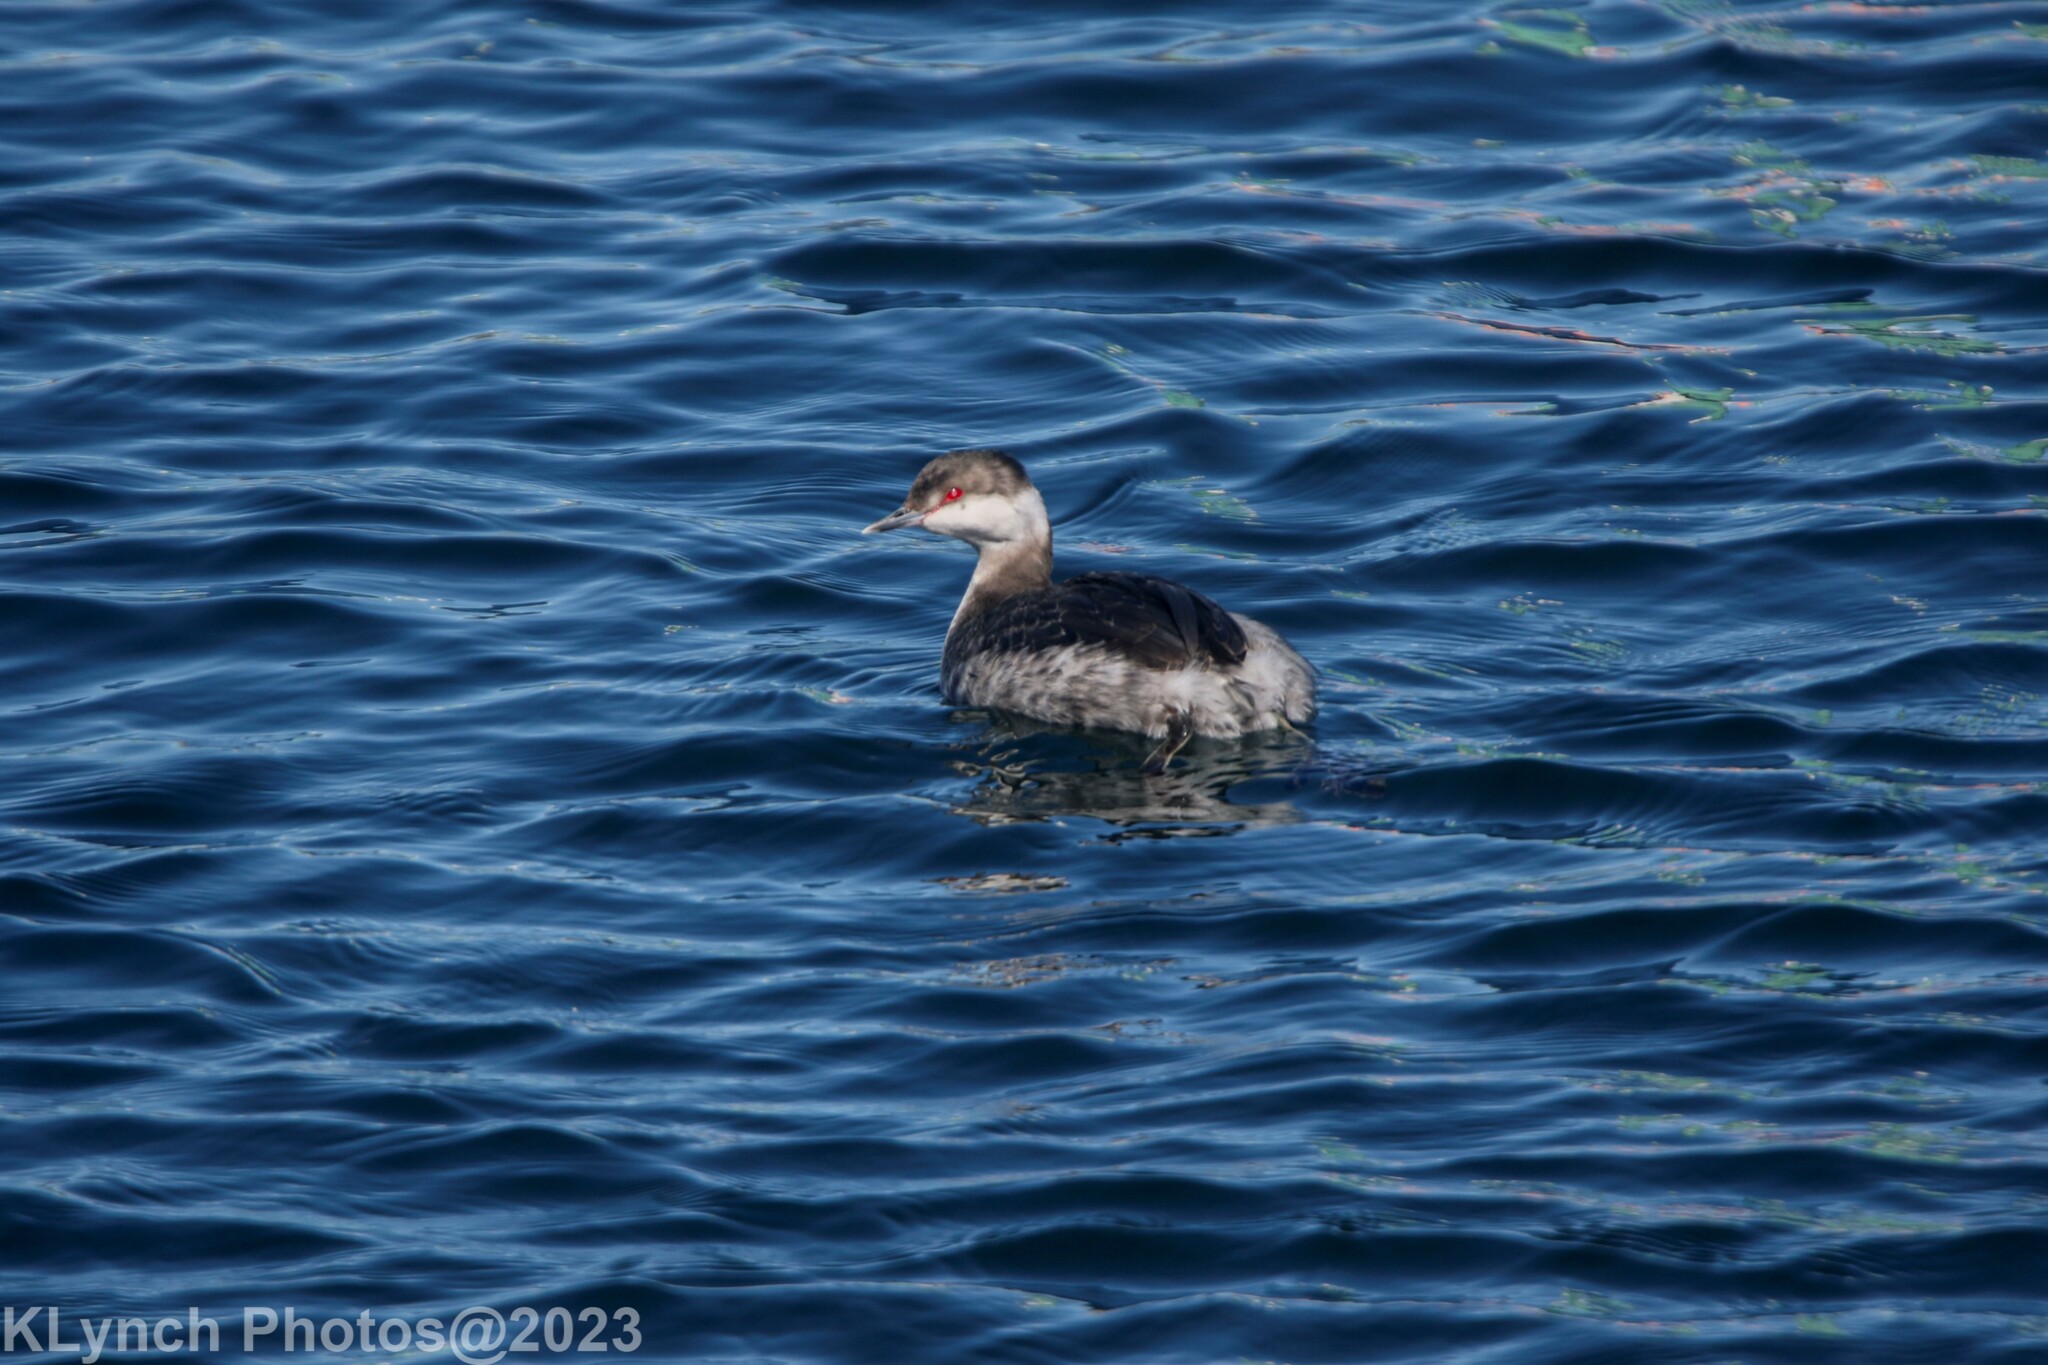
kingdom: Animalia
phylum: Chordata
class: Aves
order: Podicipediformes
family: Podicipedidae
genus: Podiceps
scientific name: Podiceps auritus
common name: Horned grebe
